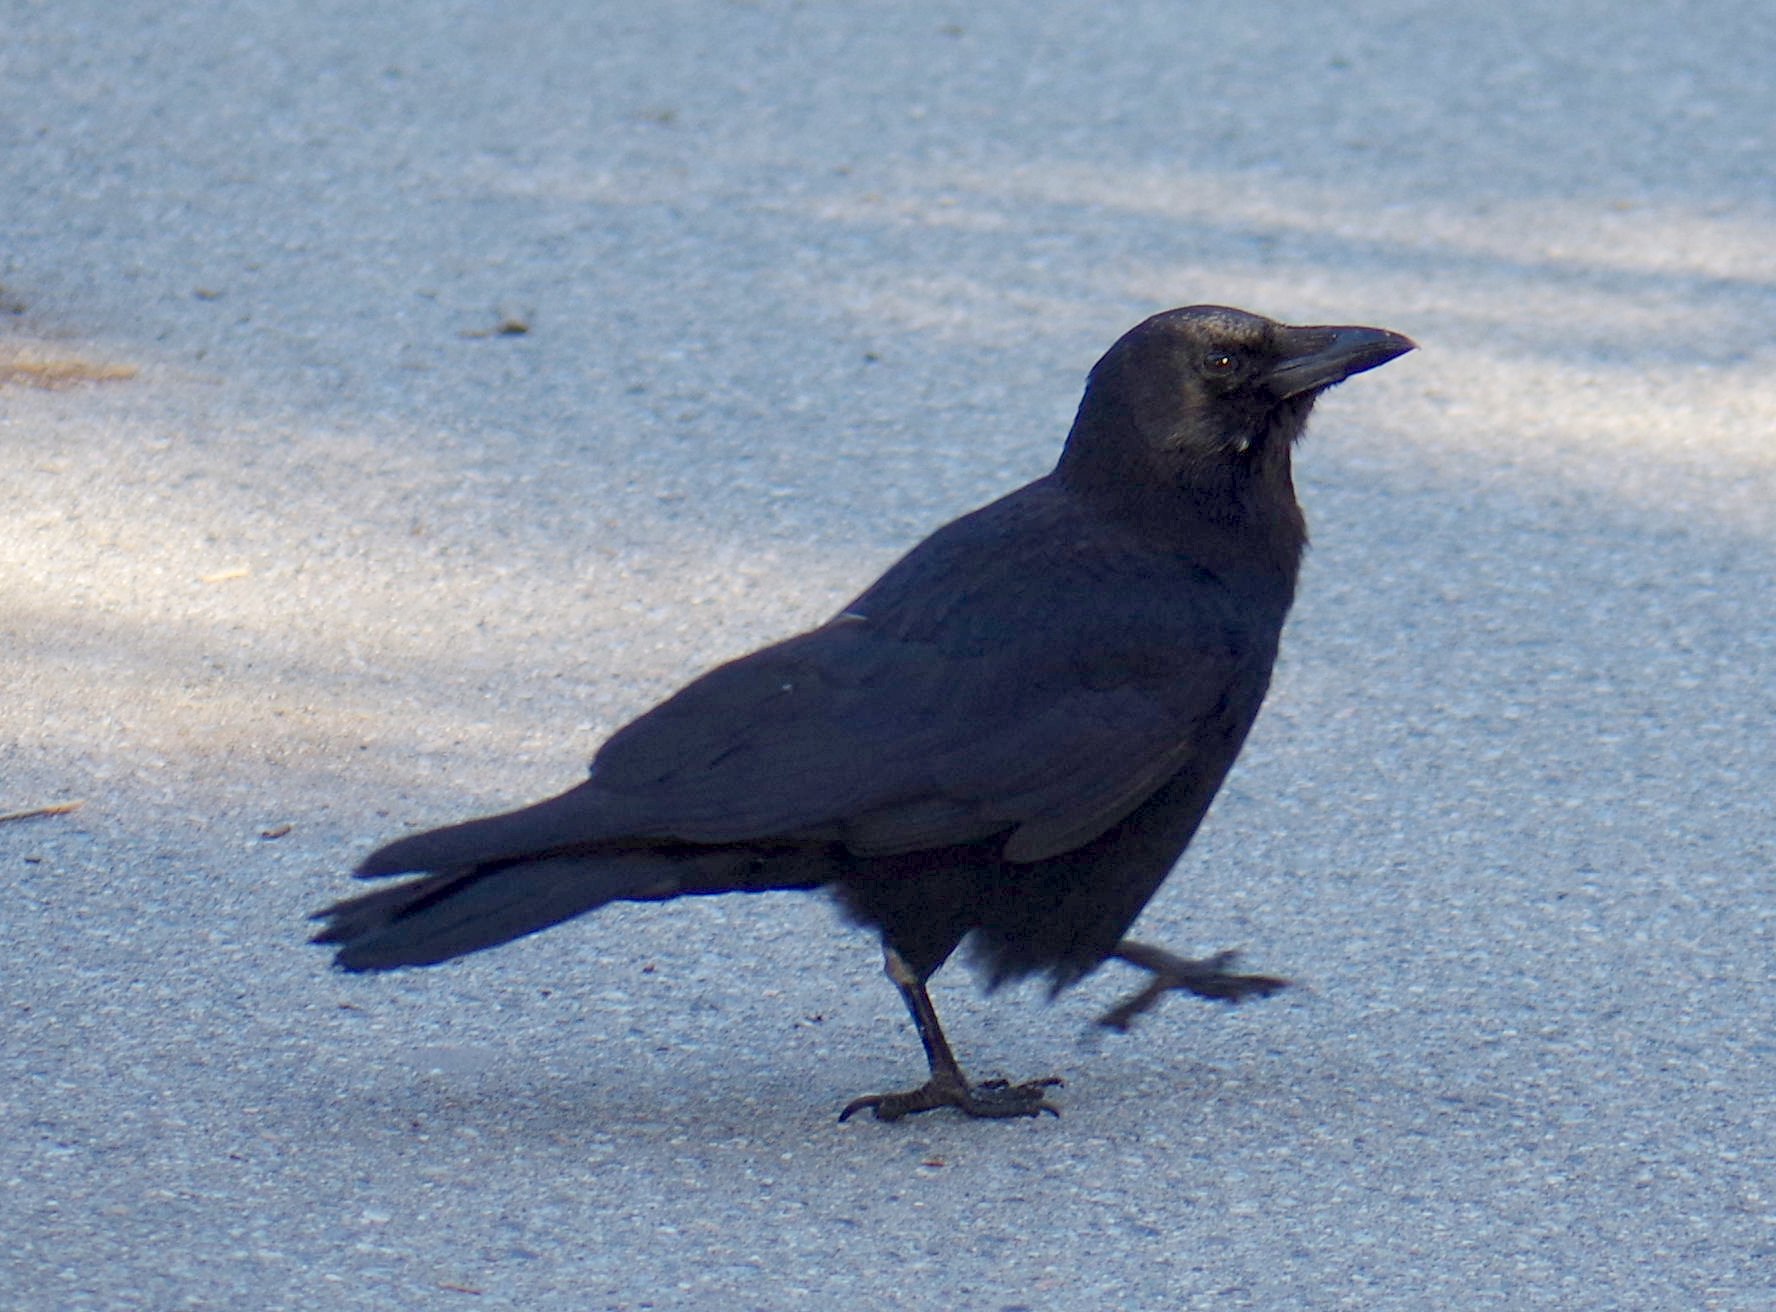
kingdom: Animalia
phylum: Chordata
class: Aves
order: Passeriformes
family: Corvidae
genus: Corvus
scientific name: Corvus brachyrhynchos
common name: American crow
